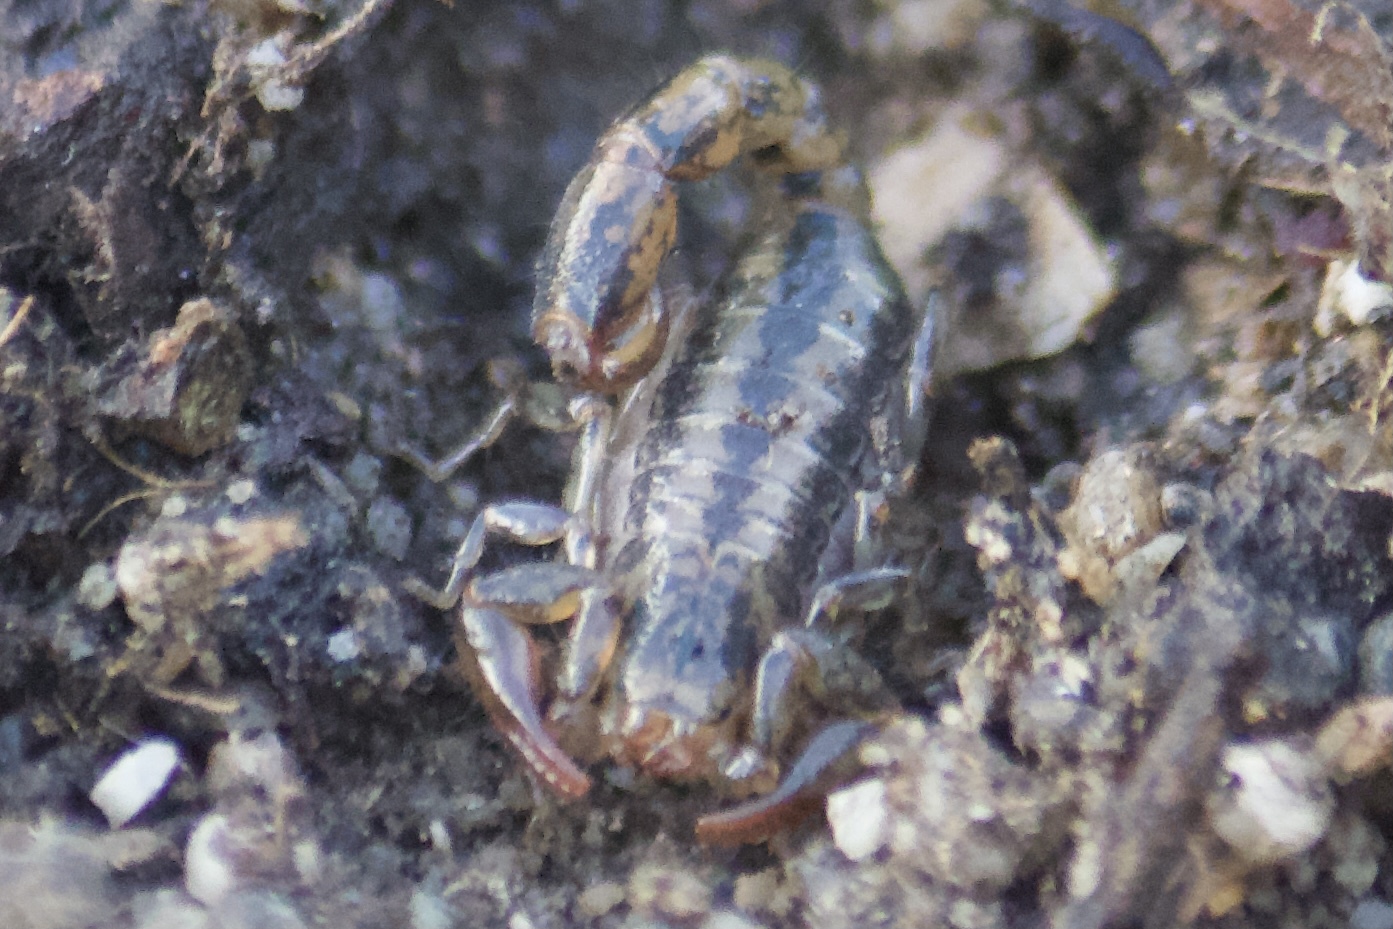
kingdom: Animalia
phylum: Arthropoda
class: Arachnida
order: Scorpiones
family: Superstitioniidae
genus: Superstitionia
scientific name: Superstitionia donensis
